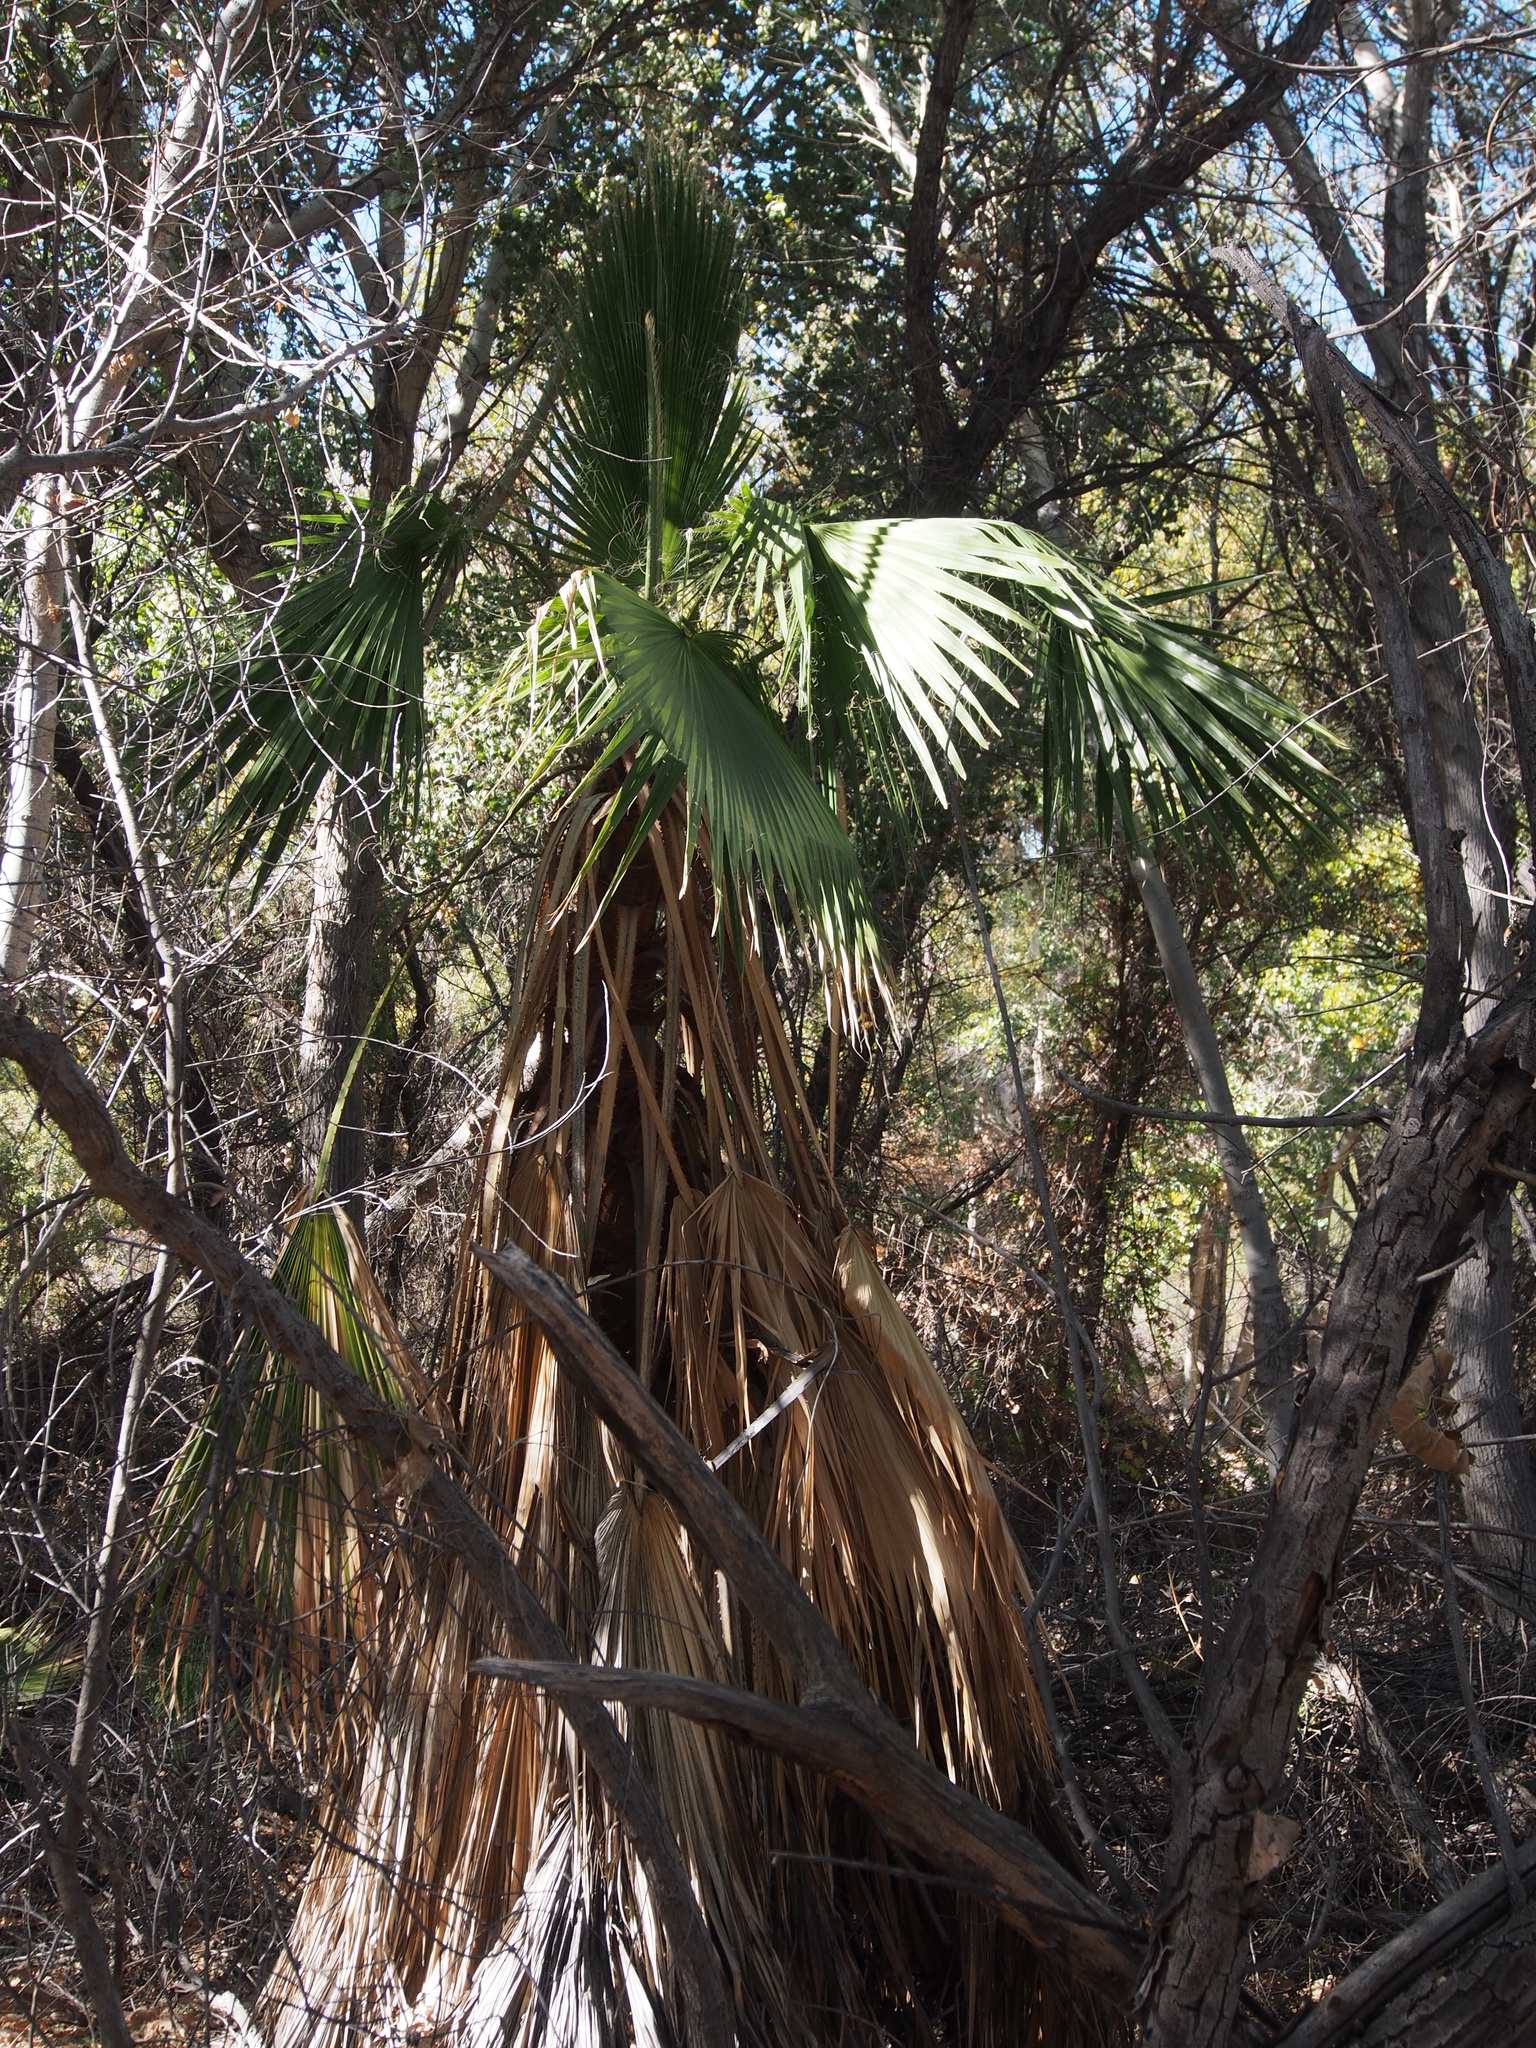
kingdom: Plantae
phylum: Tracheophyta
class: Liliopsida
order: Arecales
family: Arecaceae
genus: Washingtonia
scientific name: Washingtonia filifera
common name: California fan palm
